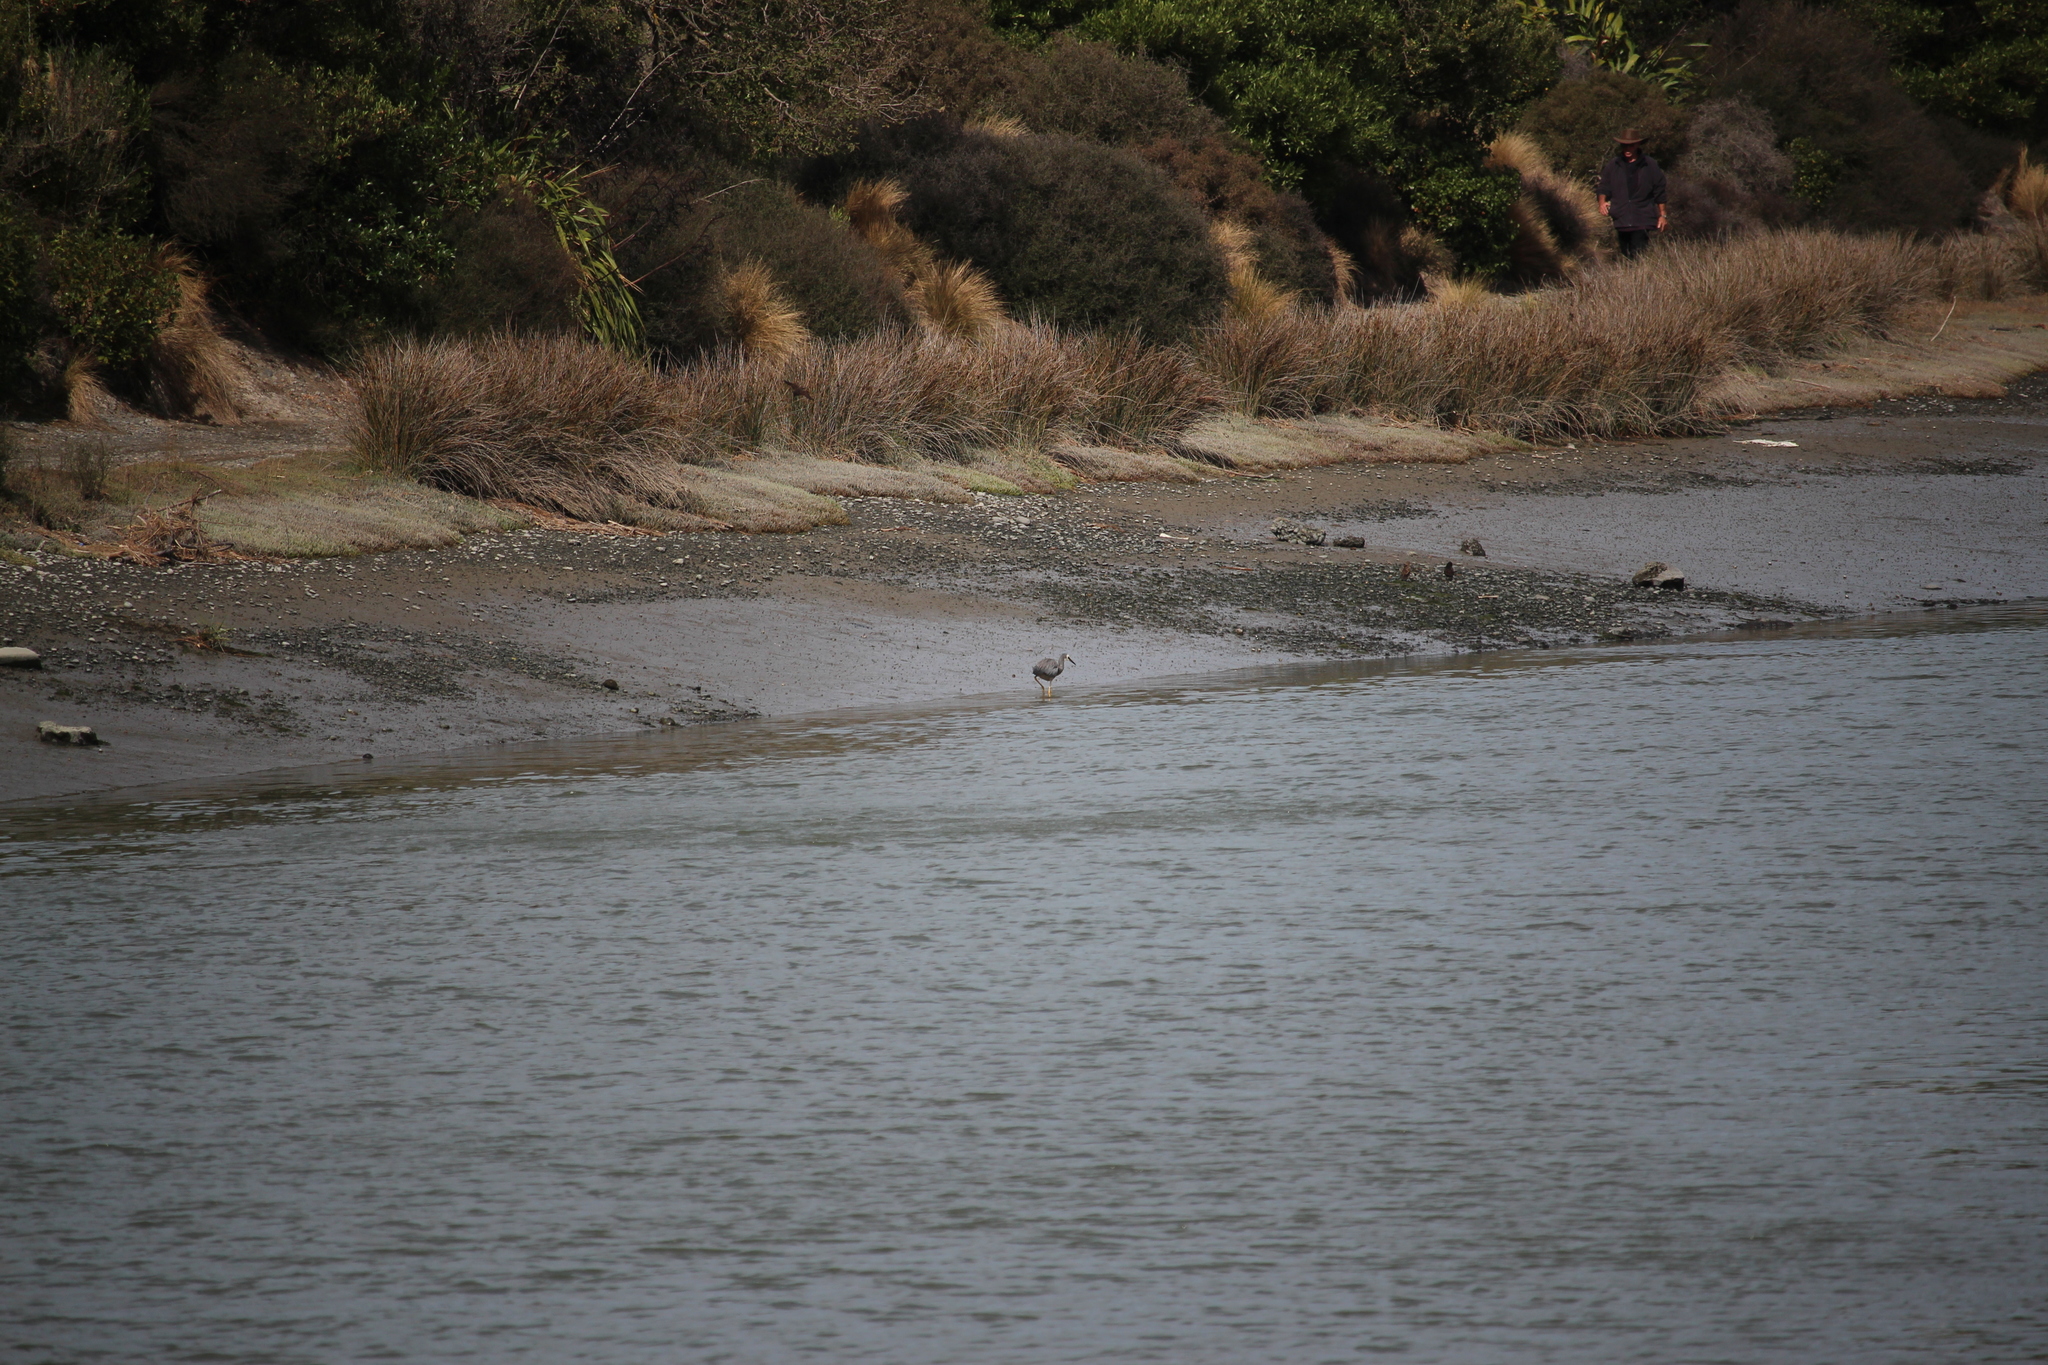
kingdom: Animalia
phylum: Chordata
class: Aves
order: Pelecaniformes
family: Ardeidae
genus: Egretta
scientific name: Egretta novaehollandiae
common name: White-faced heron
